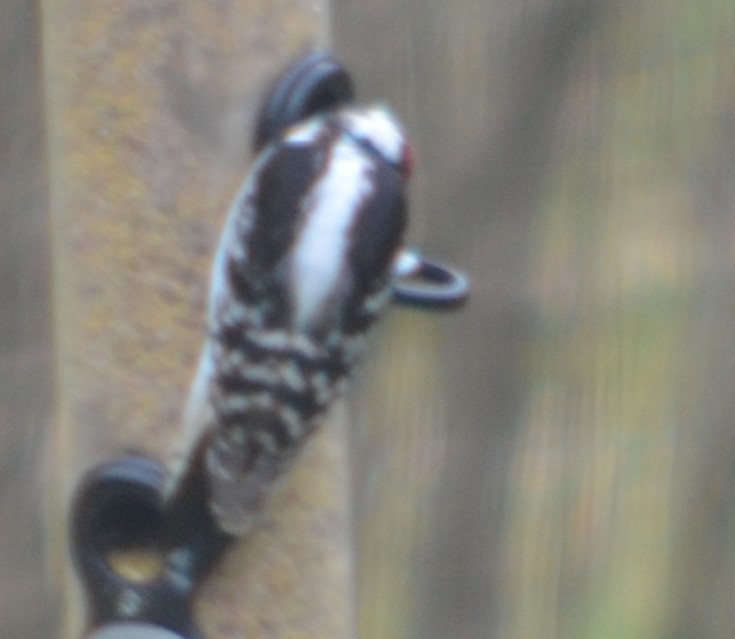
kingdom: Animalia
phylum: Chordata
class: Aves
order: Piciformes
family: Picidae
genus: Dryobates
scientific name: Dryobates pubescens
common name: Downy woodpecker
